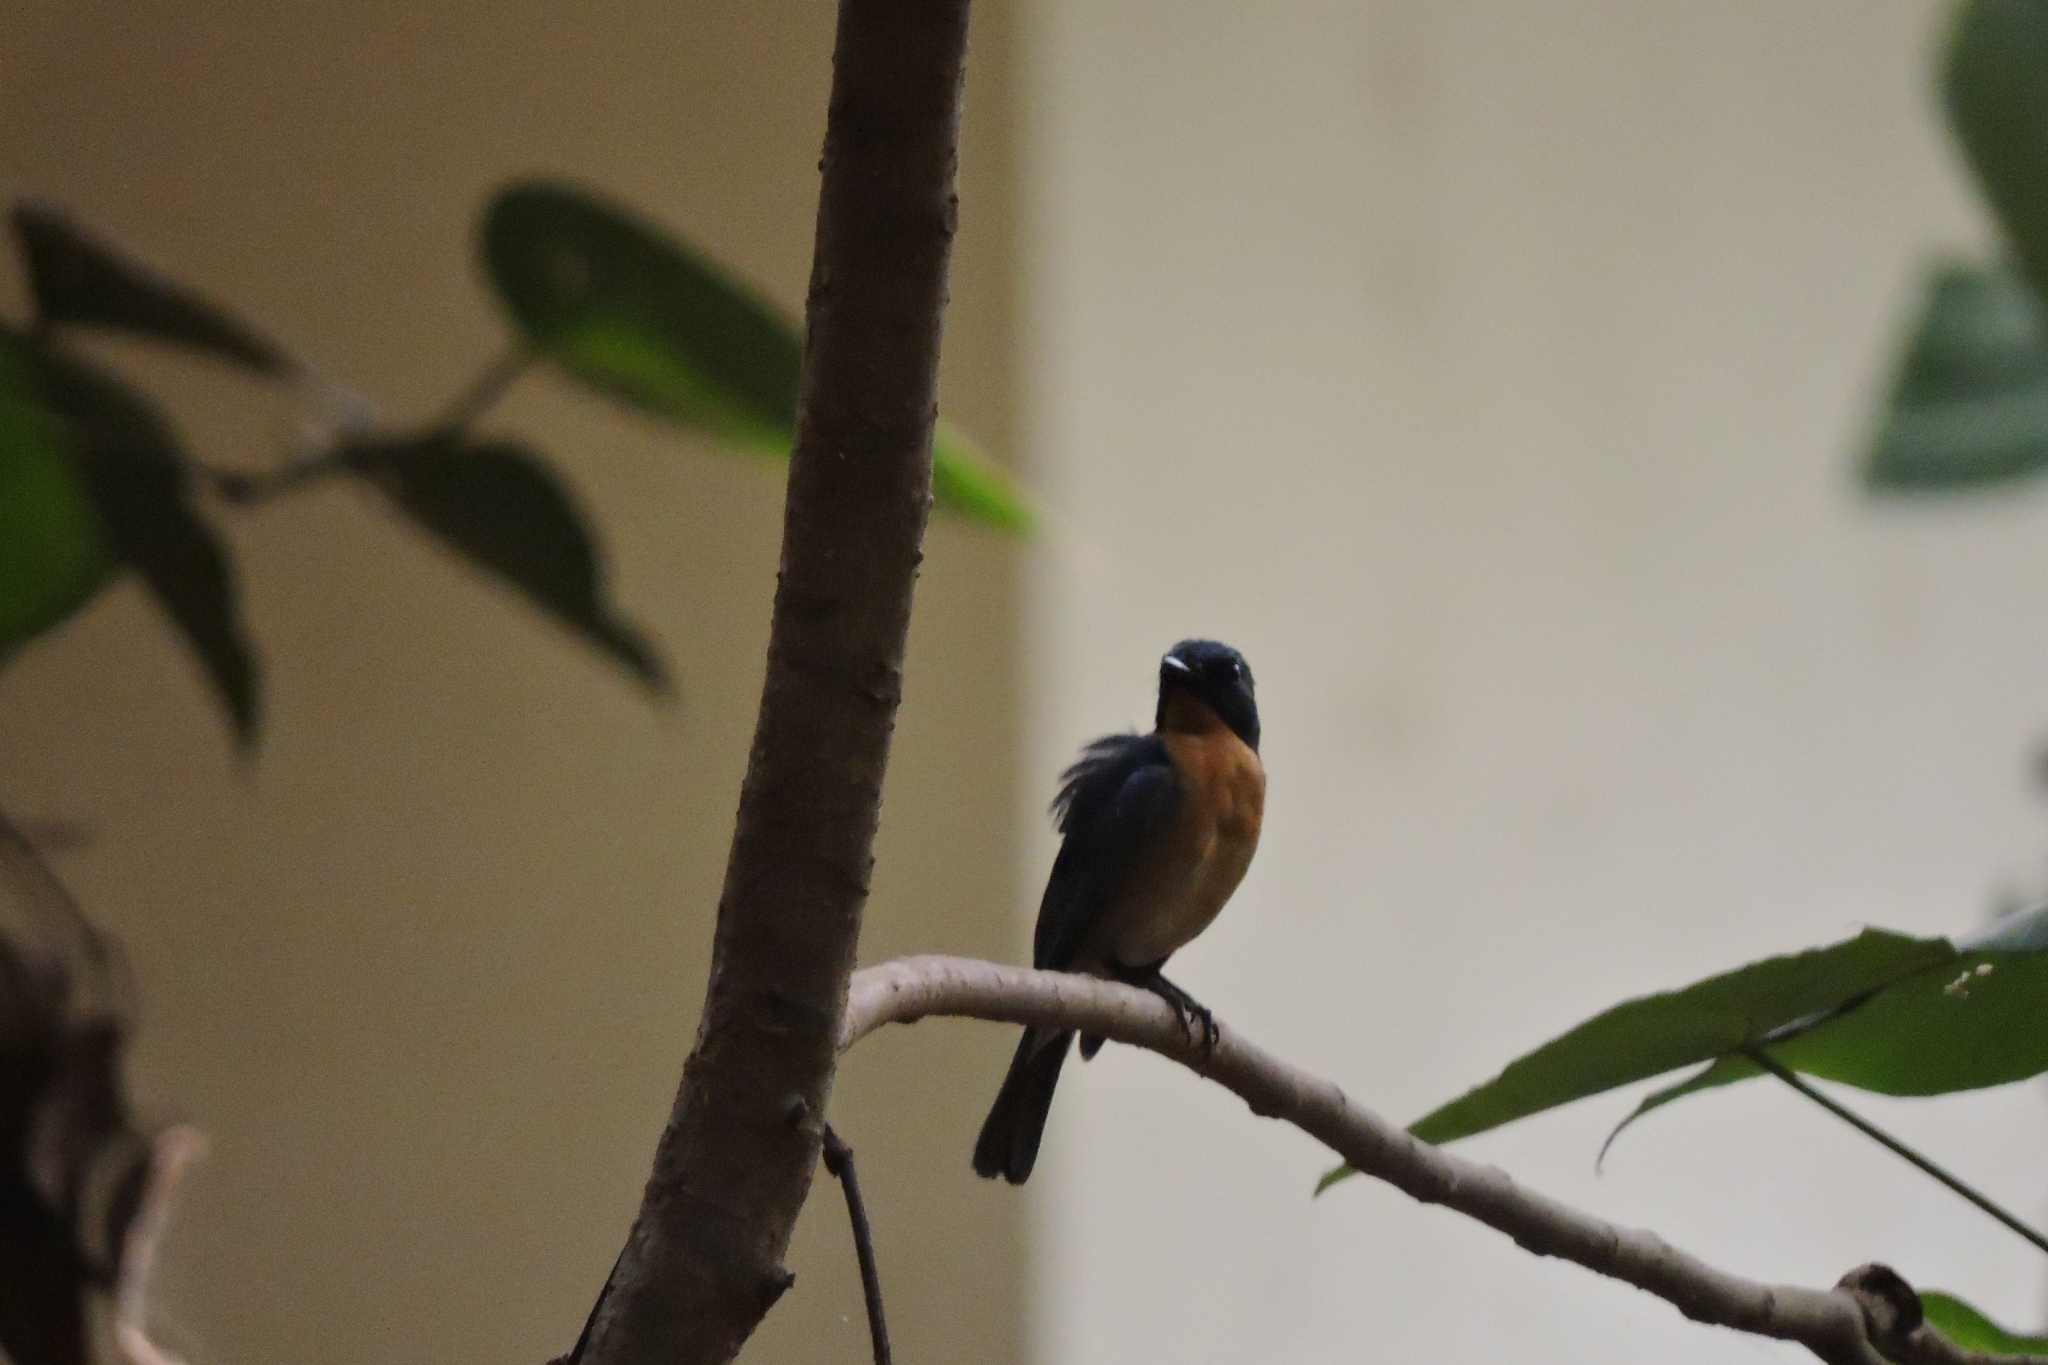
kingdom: Animalia
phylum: Chordata
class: Aves
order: Passeriformes
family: Muscicapidae
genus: Cyornis
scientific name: Cyornis tickelliae
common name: Tickell's blue flycatcher
